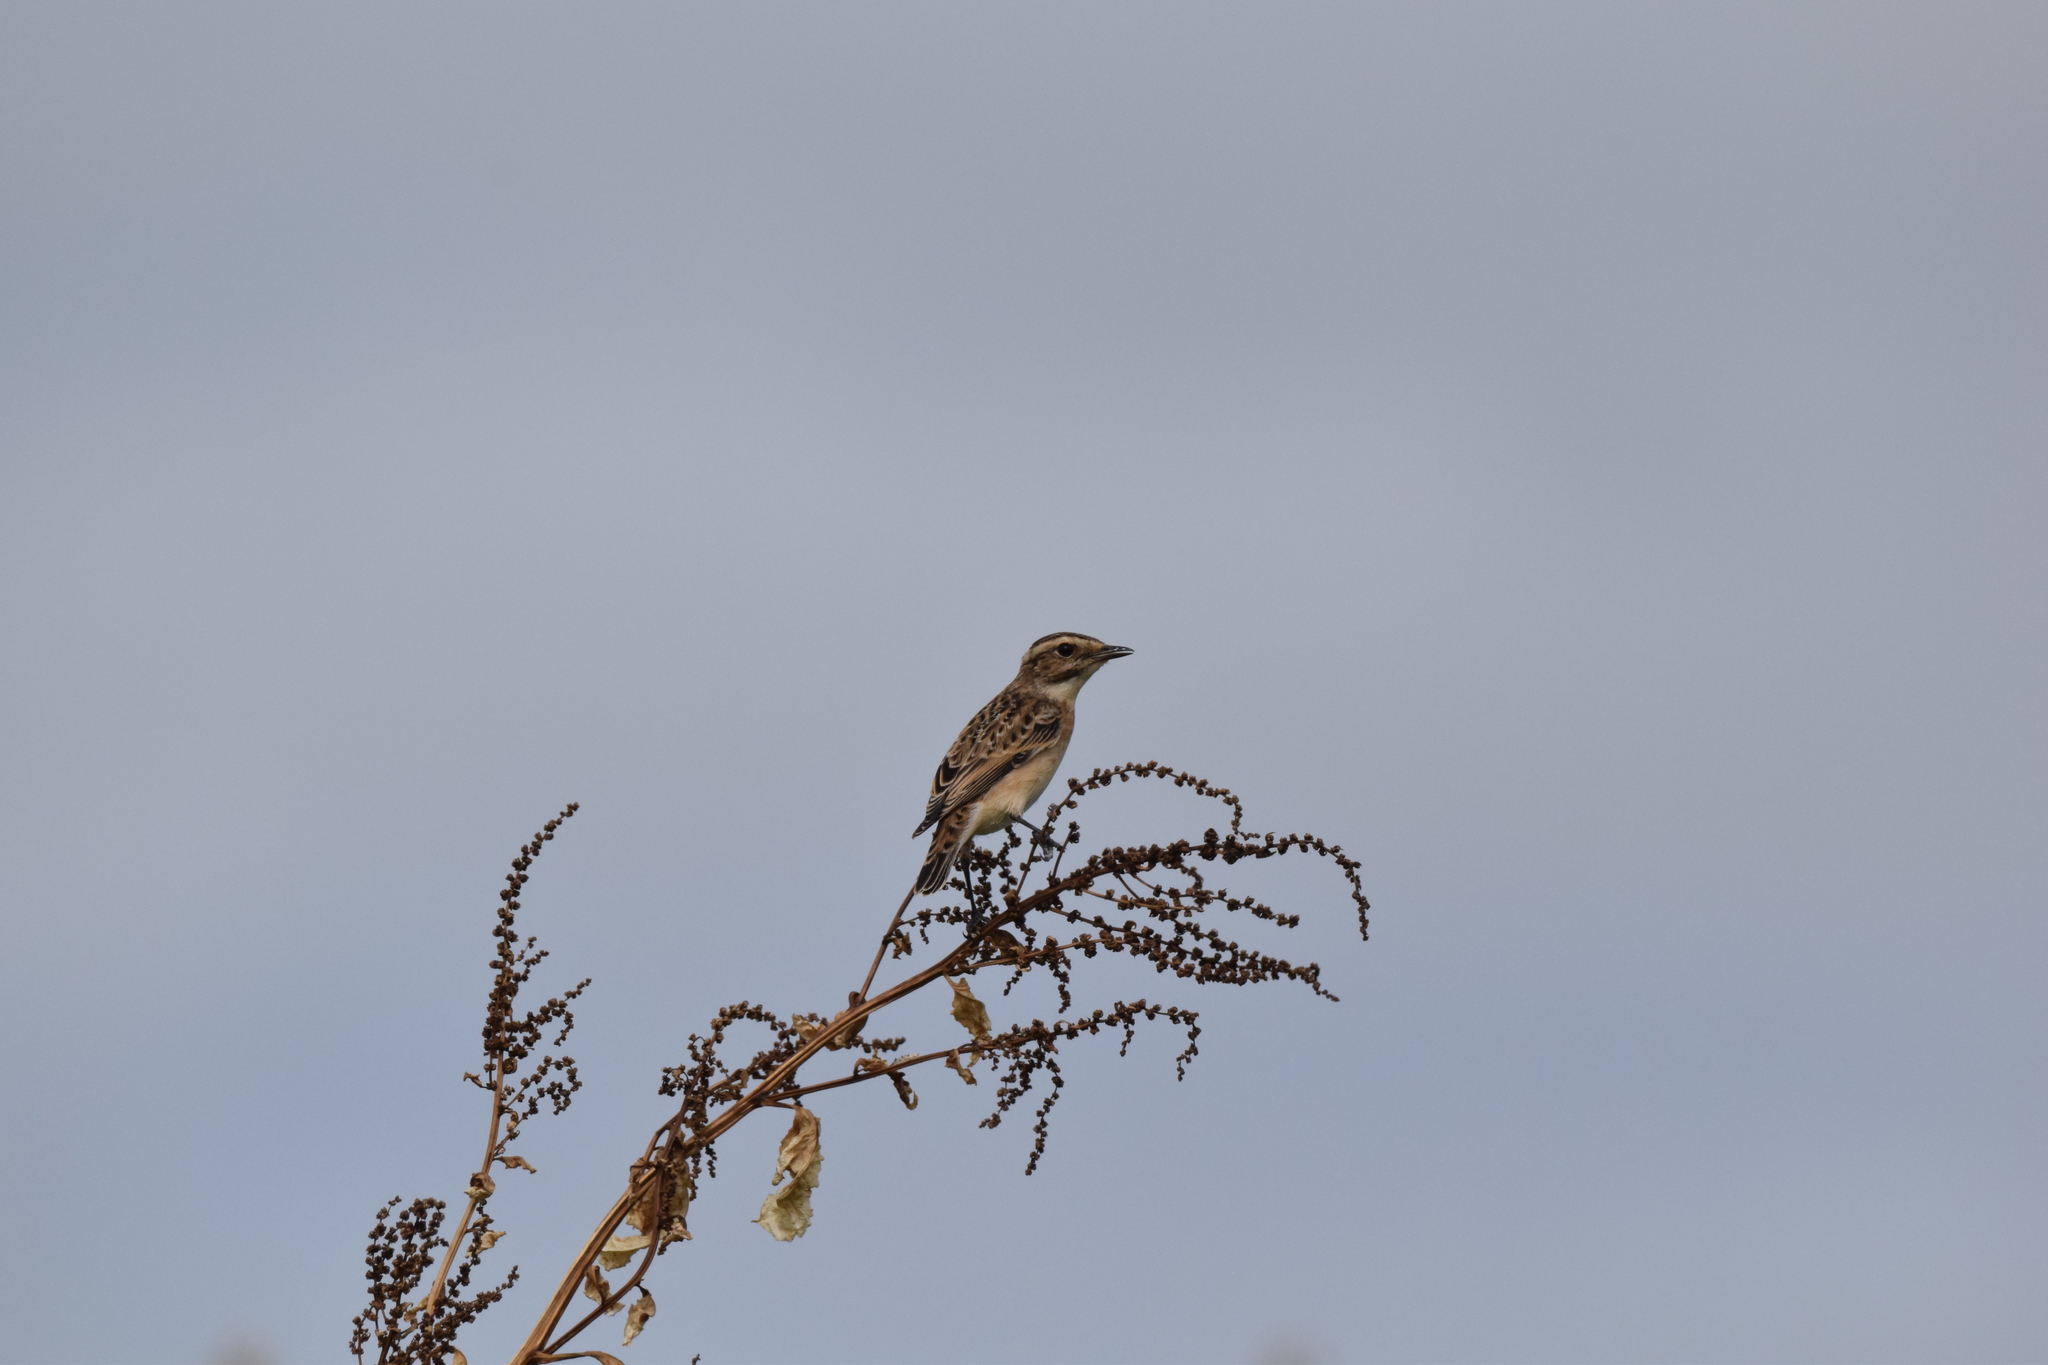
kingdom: Animalia
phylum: Chordata
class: Aves
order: Passeriformes
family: Muscicapidae
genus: Saxicola
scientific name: Saxicola rubetra
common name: Whinchat
